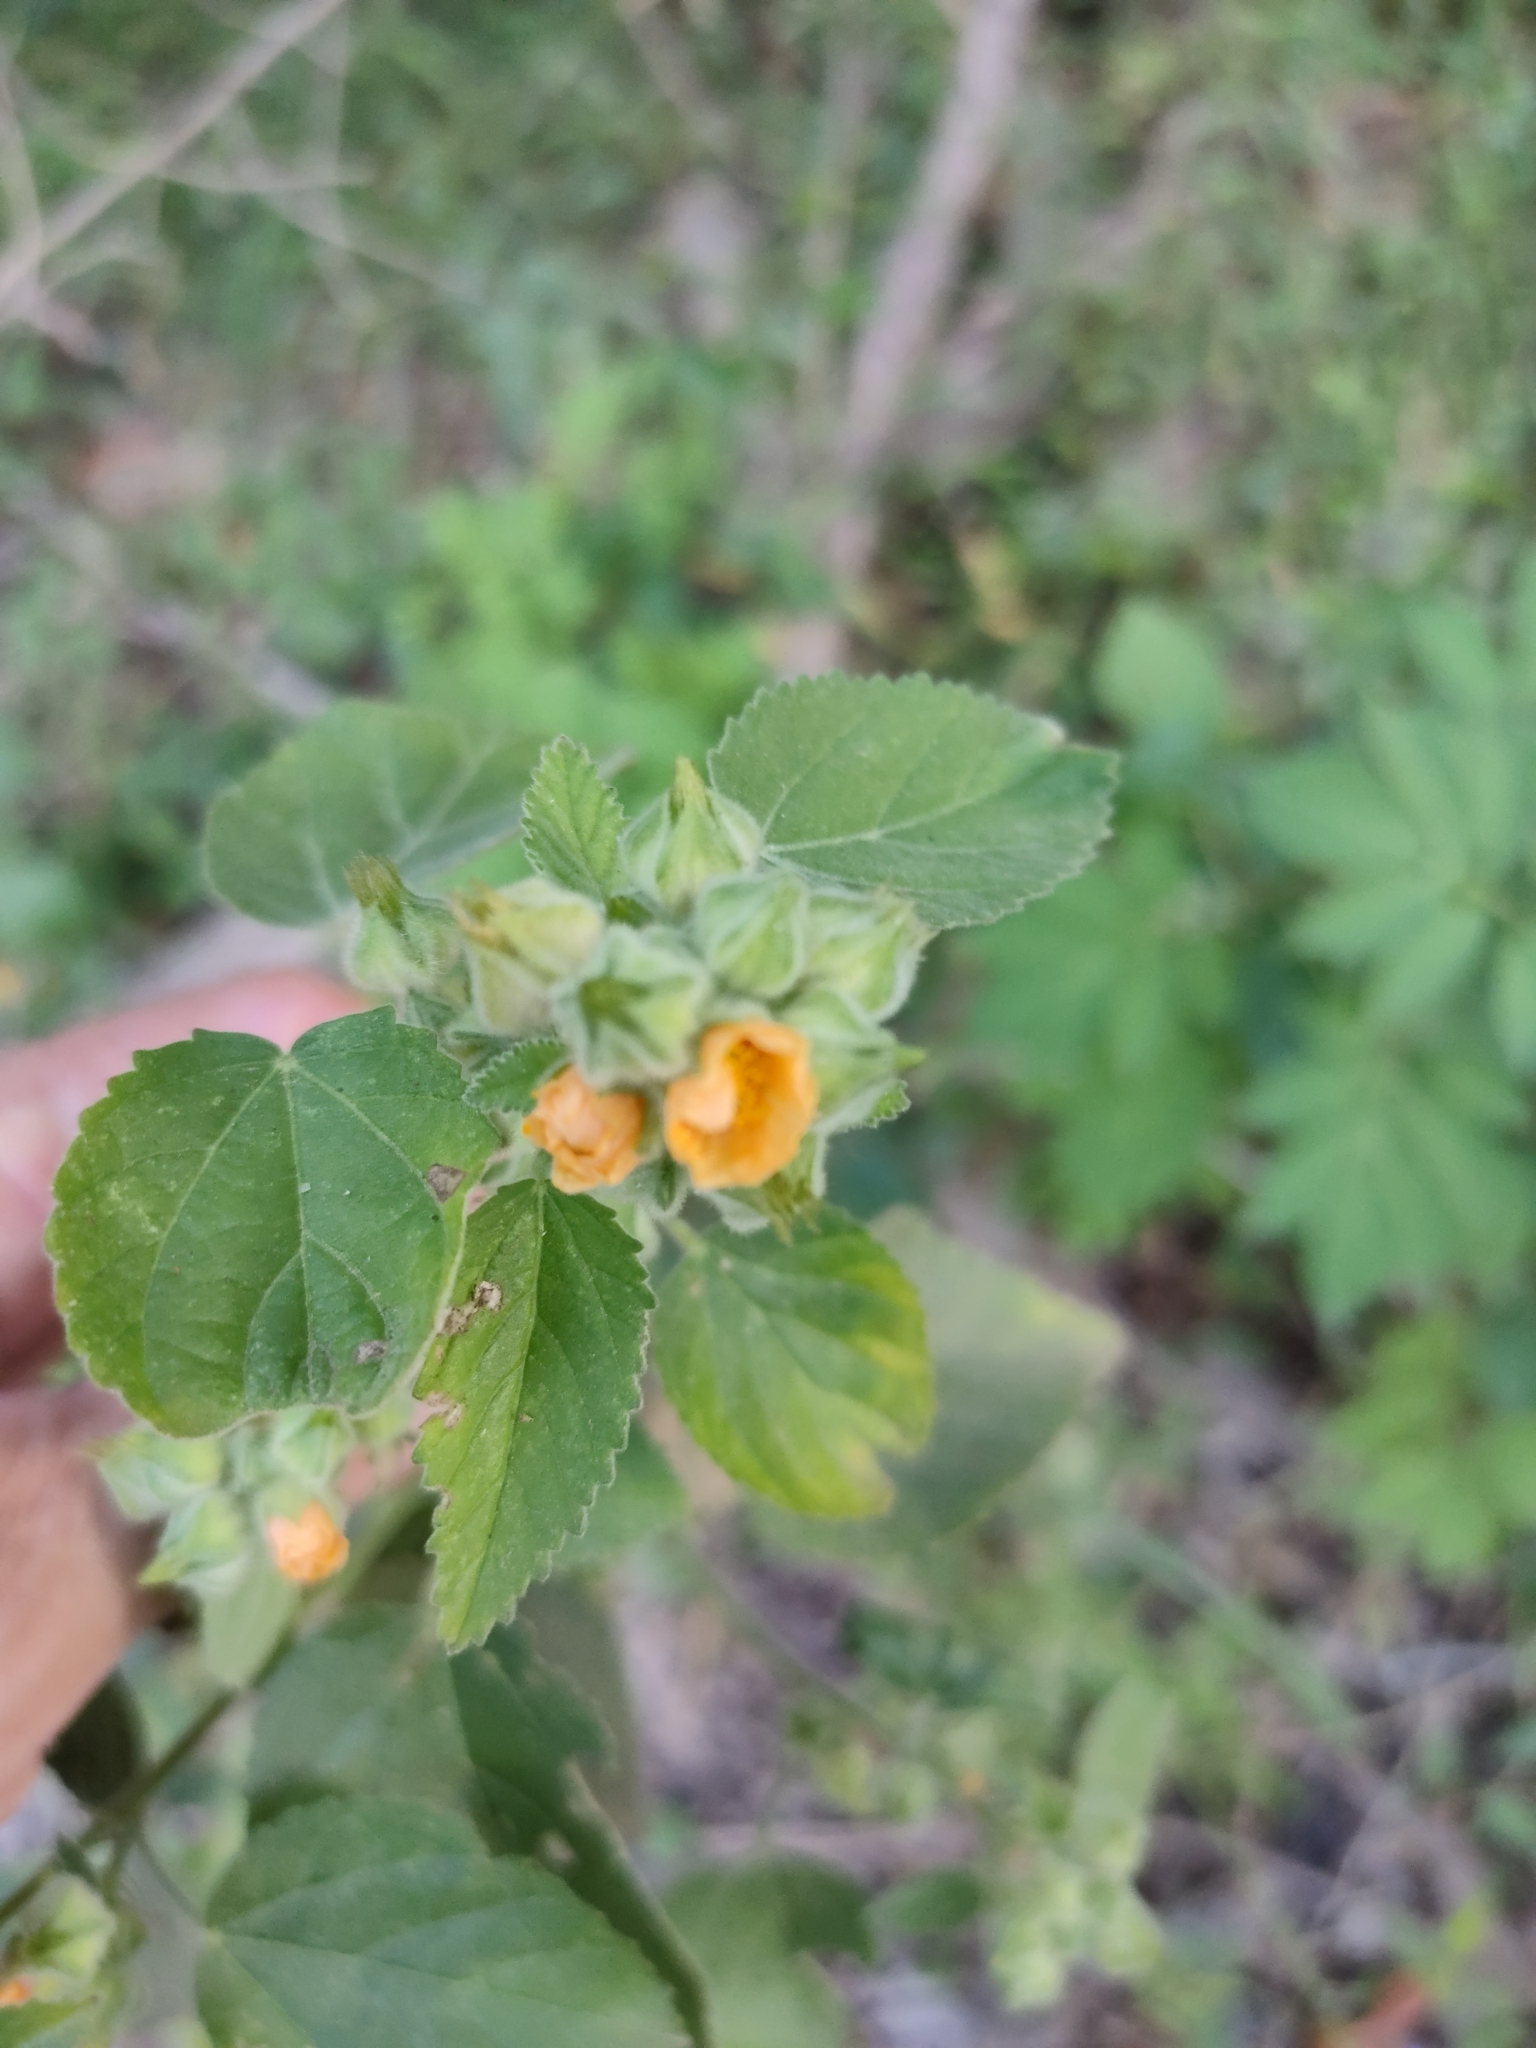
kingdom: Plantae
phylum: Tracheophyta
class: Magnoliopsida
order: Malvales
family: Malvaceae
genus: Sida
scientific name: Sida cordifolia
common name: Ilima
